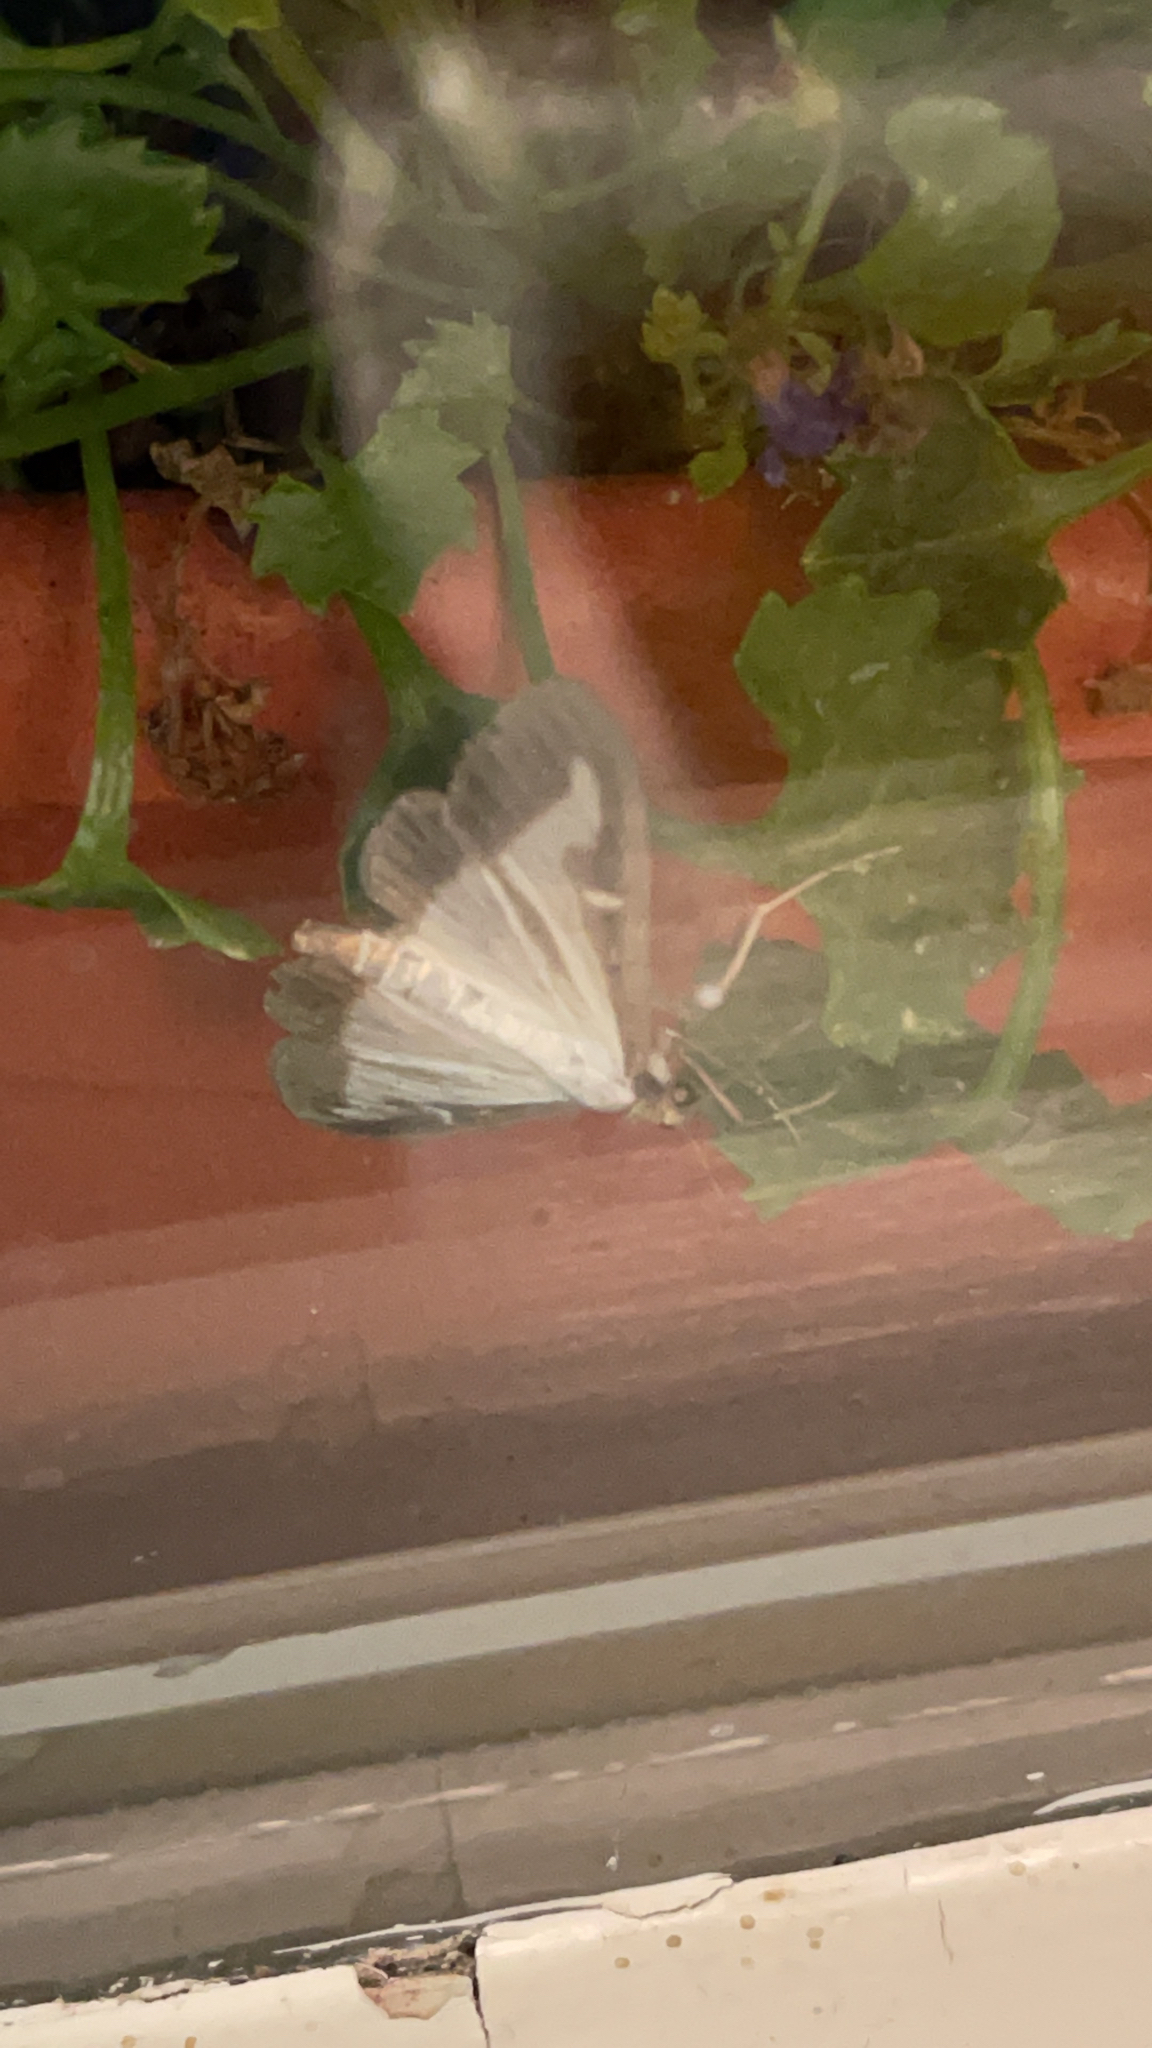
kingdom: Animalia
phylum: Arthropoda
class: Insecta
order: Lepidoptera
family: Crambidae
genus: Cydalima
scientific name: Cydalima perspectalis
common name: Box tree moth
